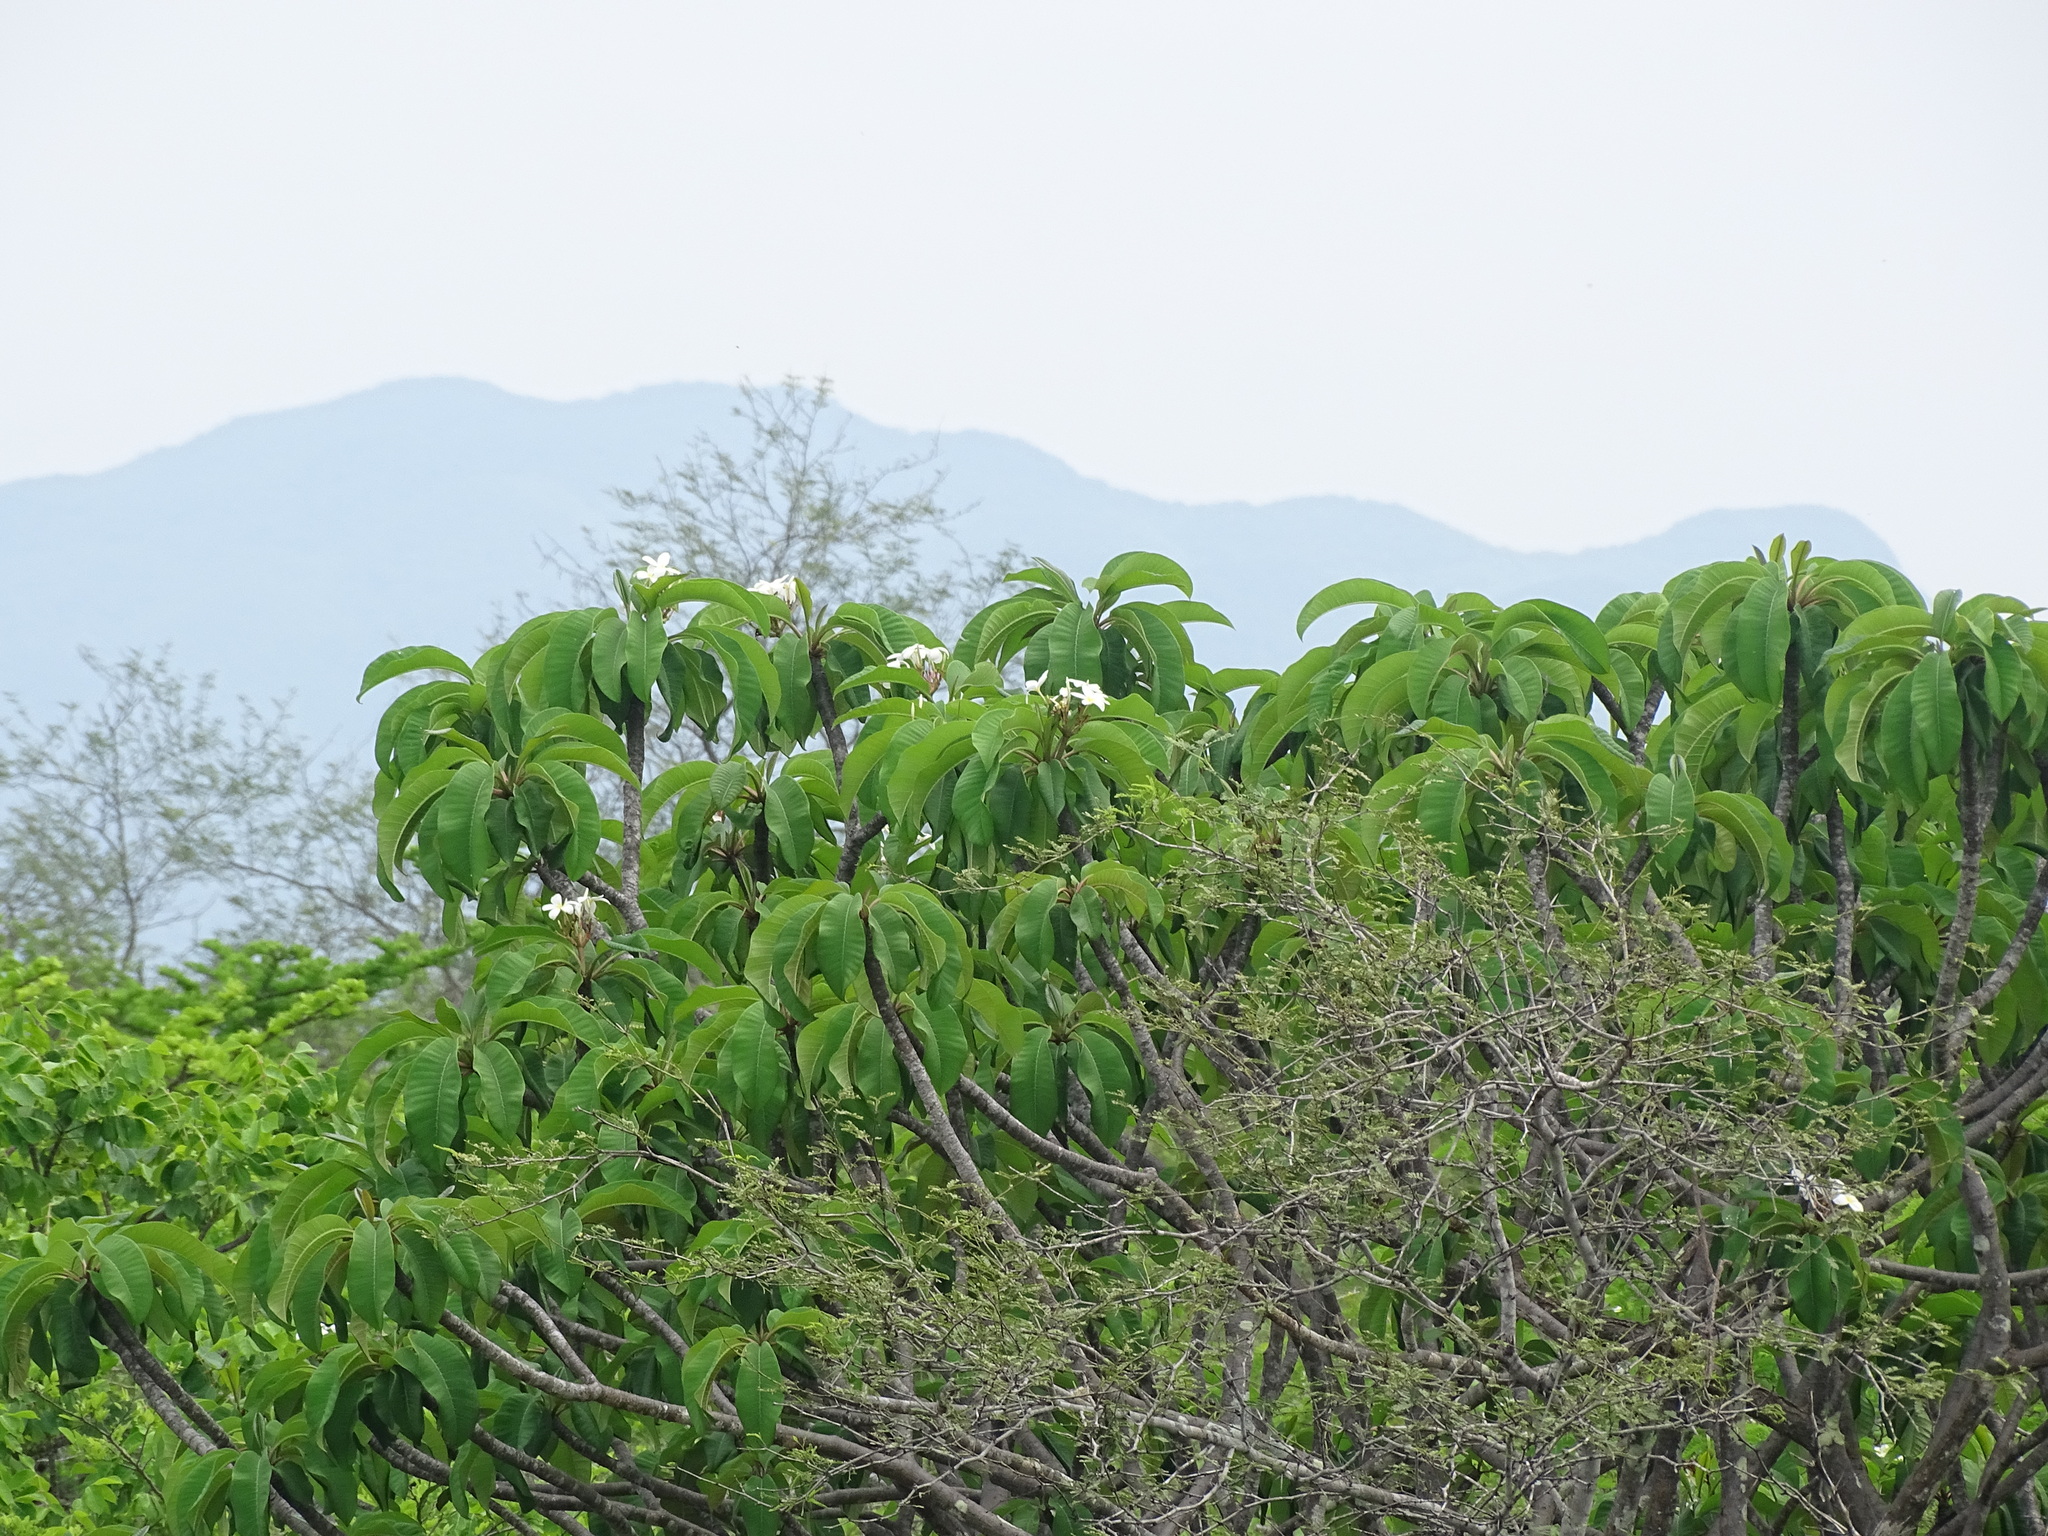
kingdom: Plantae
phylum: Tracheophyta
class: Magnoliopsida
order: Gentianales
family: Apocynaceae
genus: Plumeria
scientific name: Plumeria rubra
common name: Pagoda-tree
